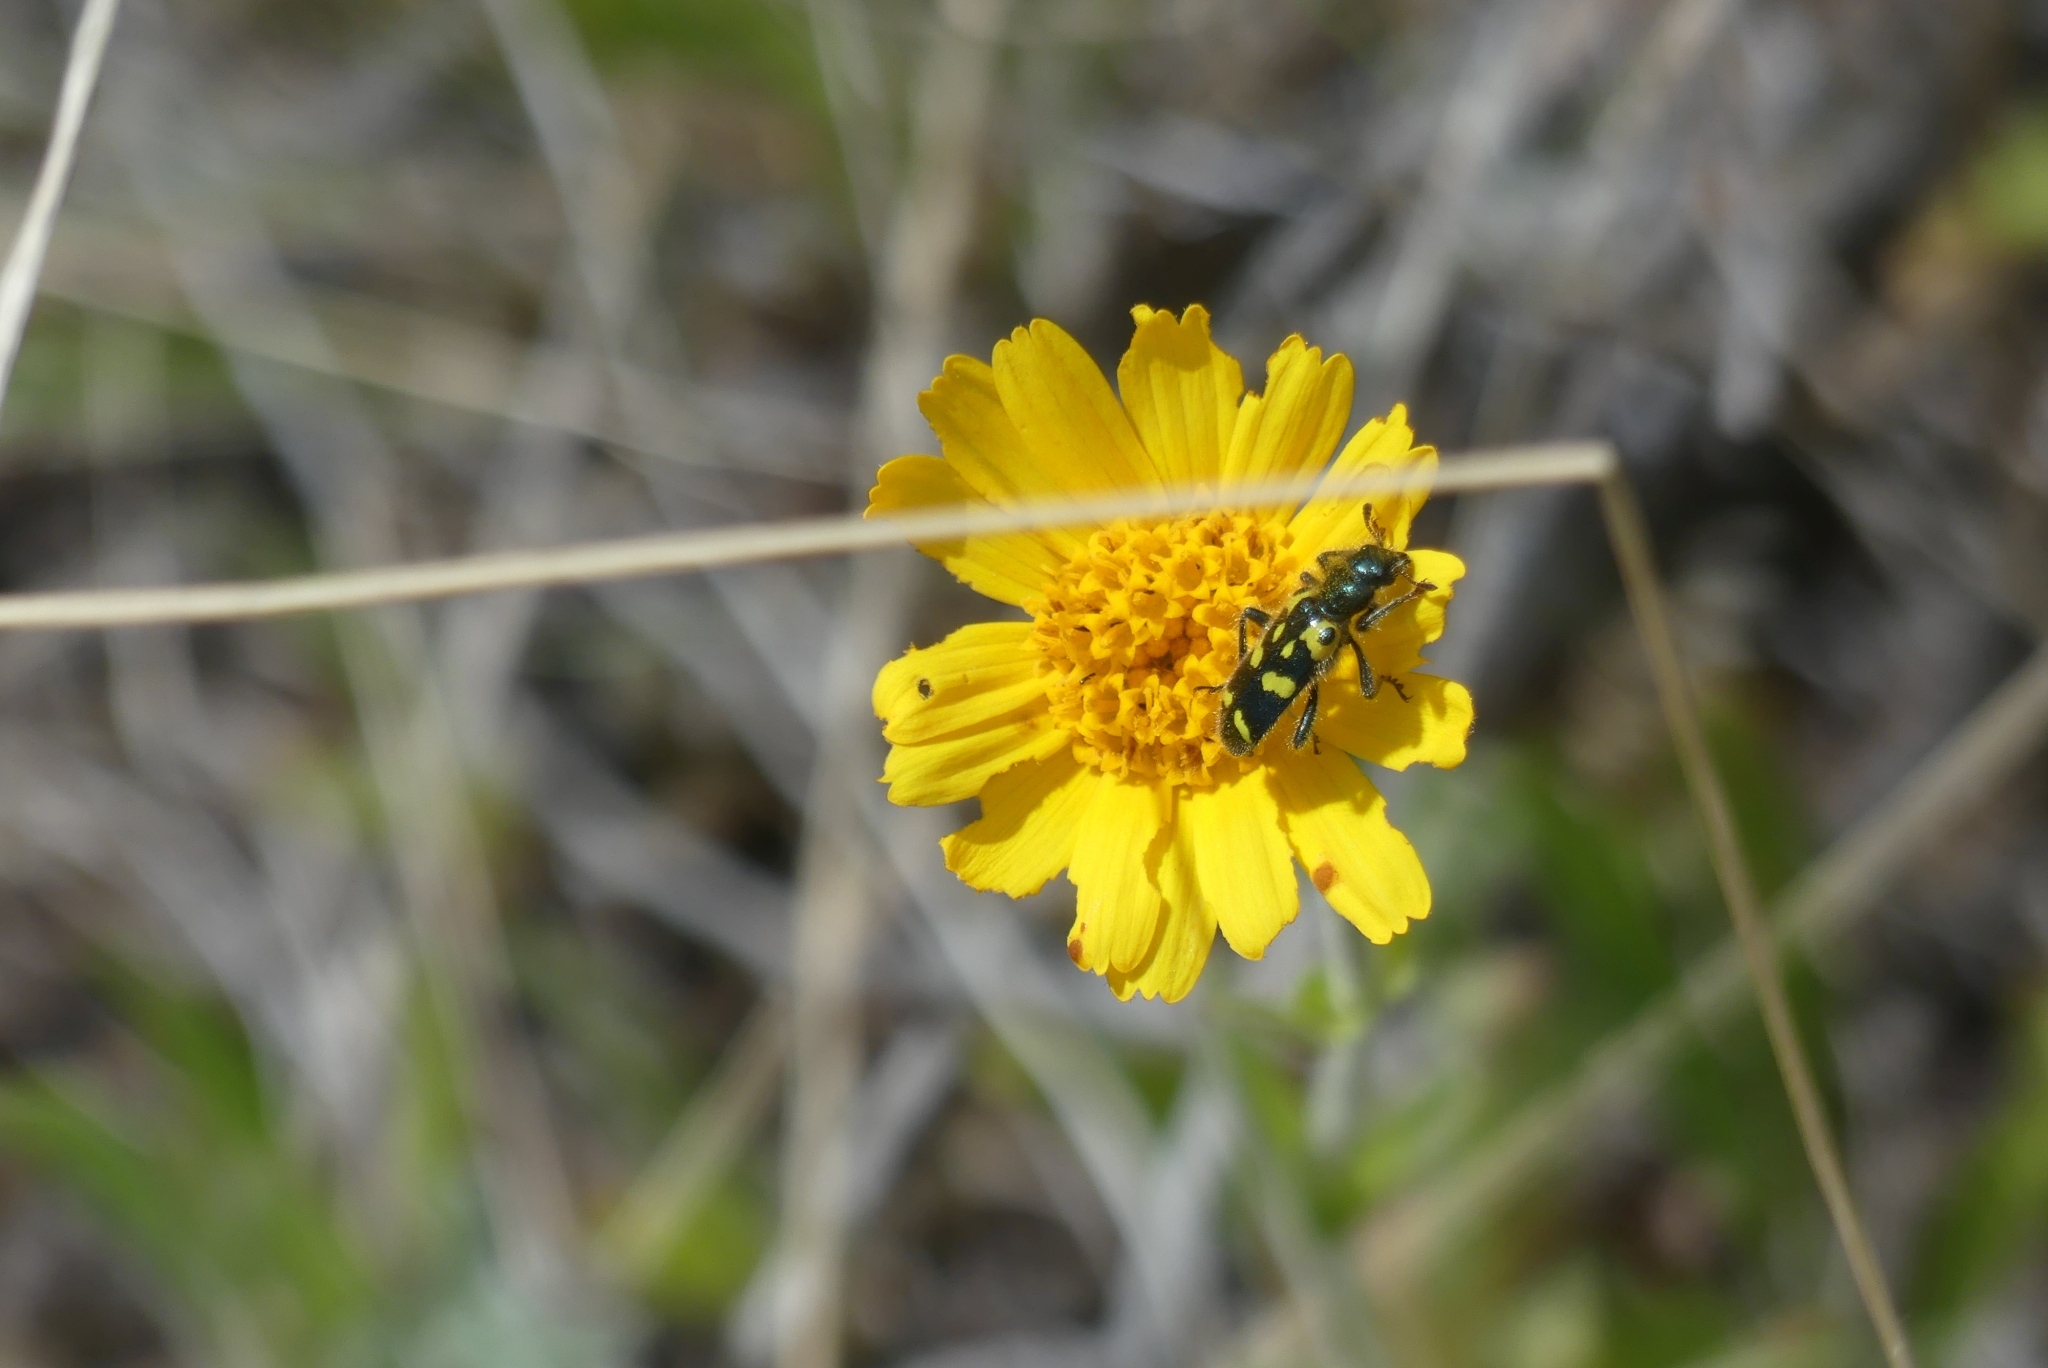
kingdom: Animalia
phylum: Arthropoda
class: Insecta
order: Coleoptera
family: Cleridae
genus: Trichodes
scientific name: Trichodes ornatus
